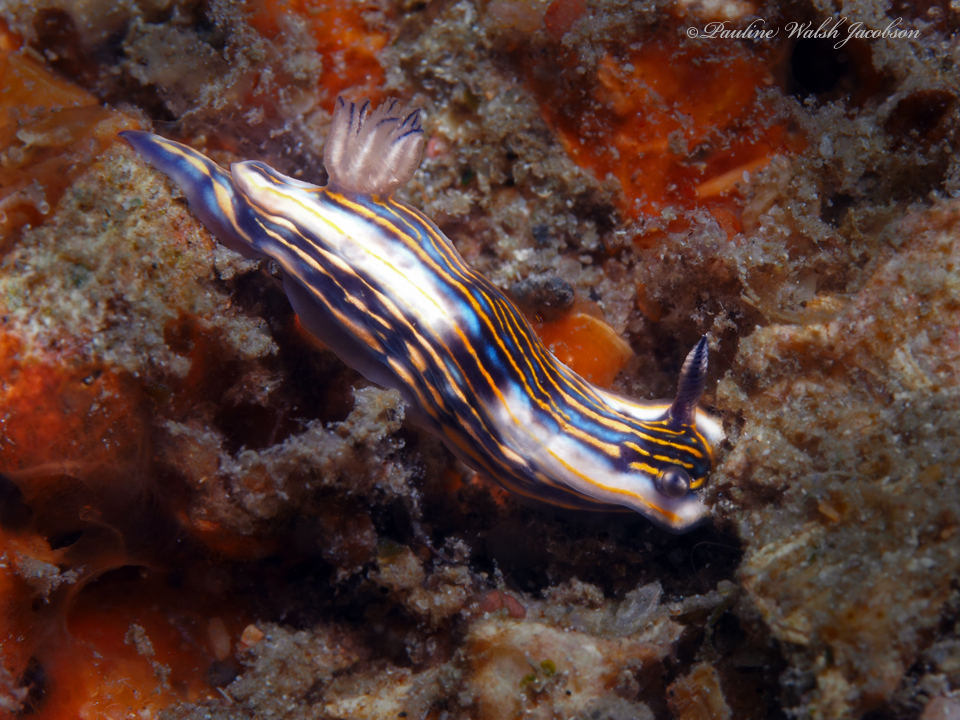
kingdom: Animalia
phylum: Mollusca
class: Gastropoda
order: Nudibranchia
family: Chromodorididae
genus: Felimare
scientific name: Felimare ruthae
